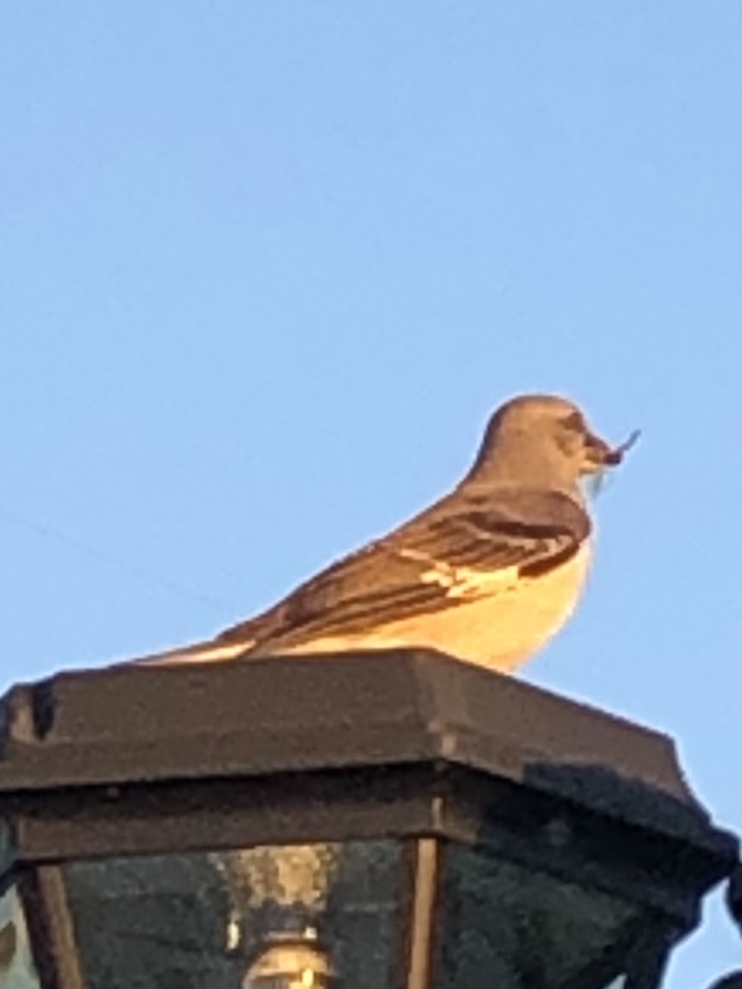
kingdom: Animalia
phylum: Chordata
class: Aves
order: Passeriformes
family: Mimidae
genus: Mimus
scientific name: Mimus polyglottos
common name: Northern mockingbird
